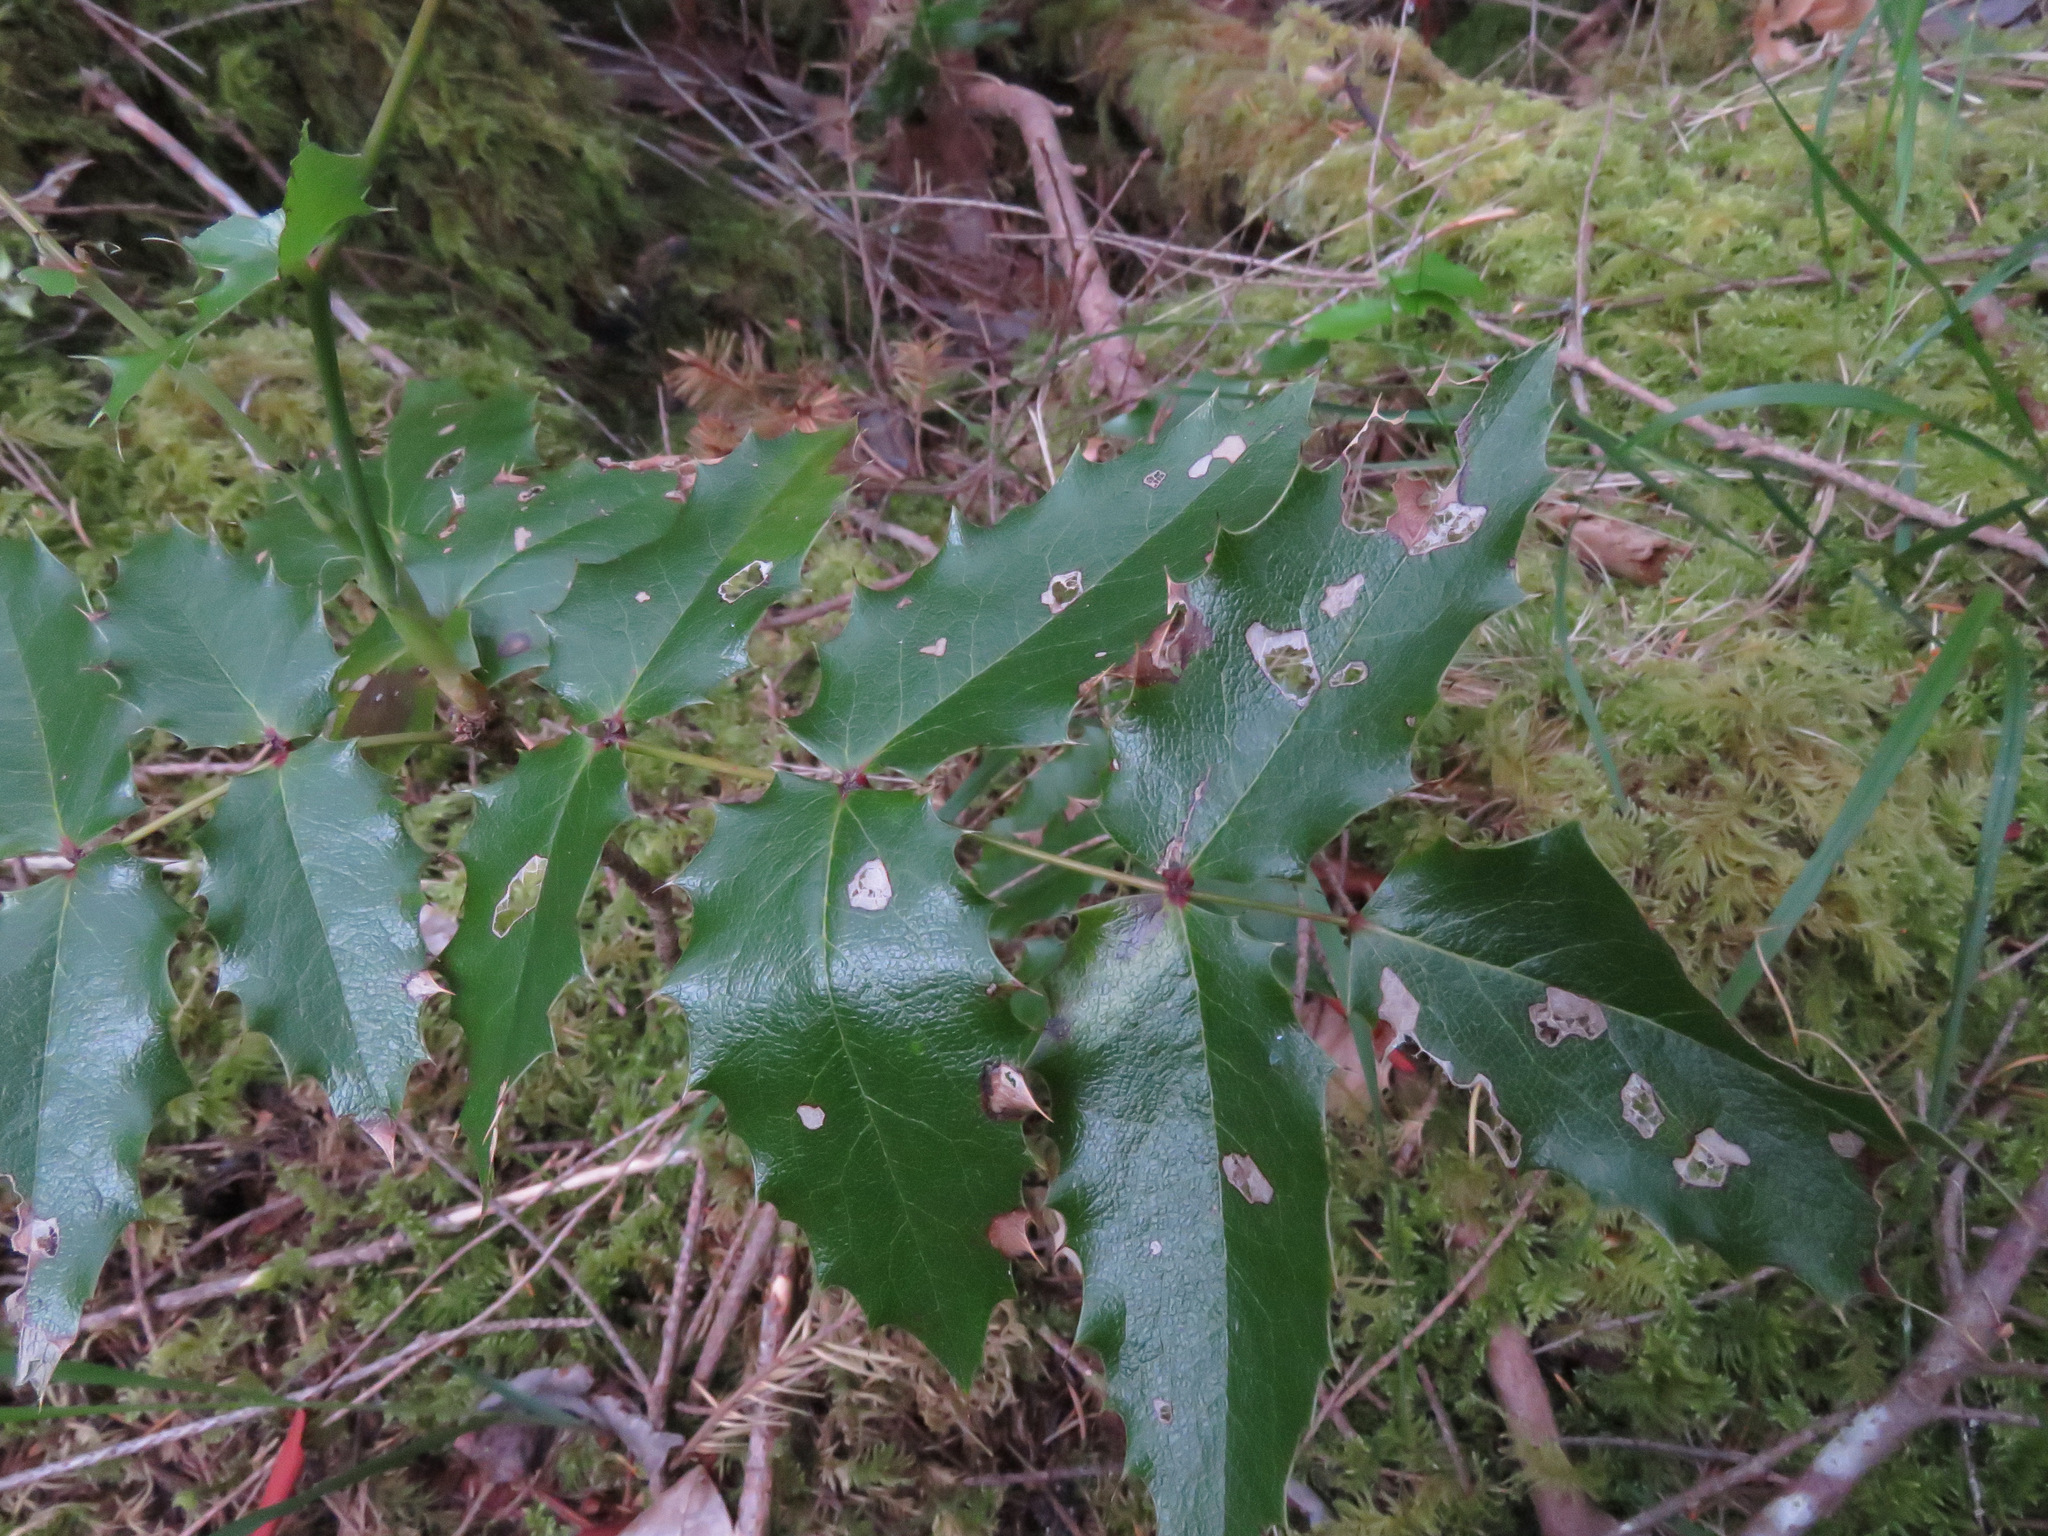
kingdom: Plantae
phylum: Tracheophyta
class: Magnoliopsida
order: Ranunculales
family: Berberidaceae
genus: Mahonia
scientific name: Mahonia aquifolium
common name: Oregon-grape
